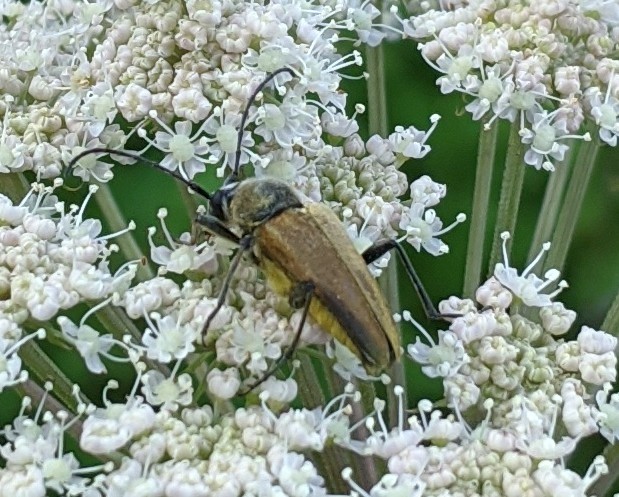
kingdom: Animalia
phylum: Arthropoda
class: Insecta
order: Coleoptera
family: Cerambycidae
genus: Cosmosalia
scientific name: Cosmosalia chrysocoma
